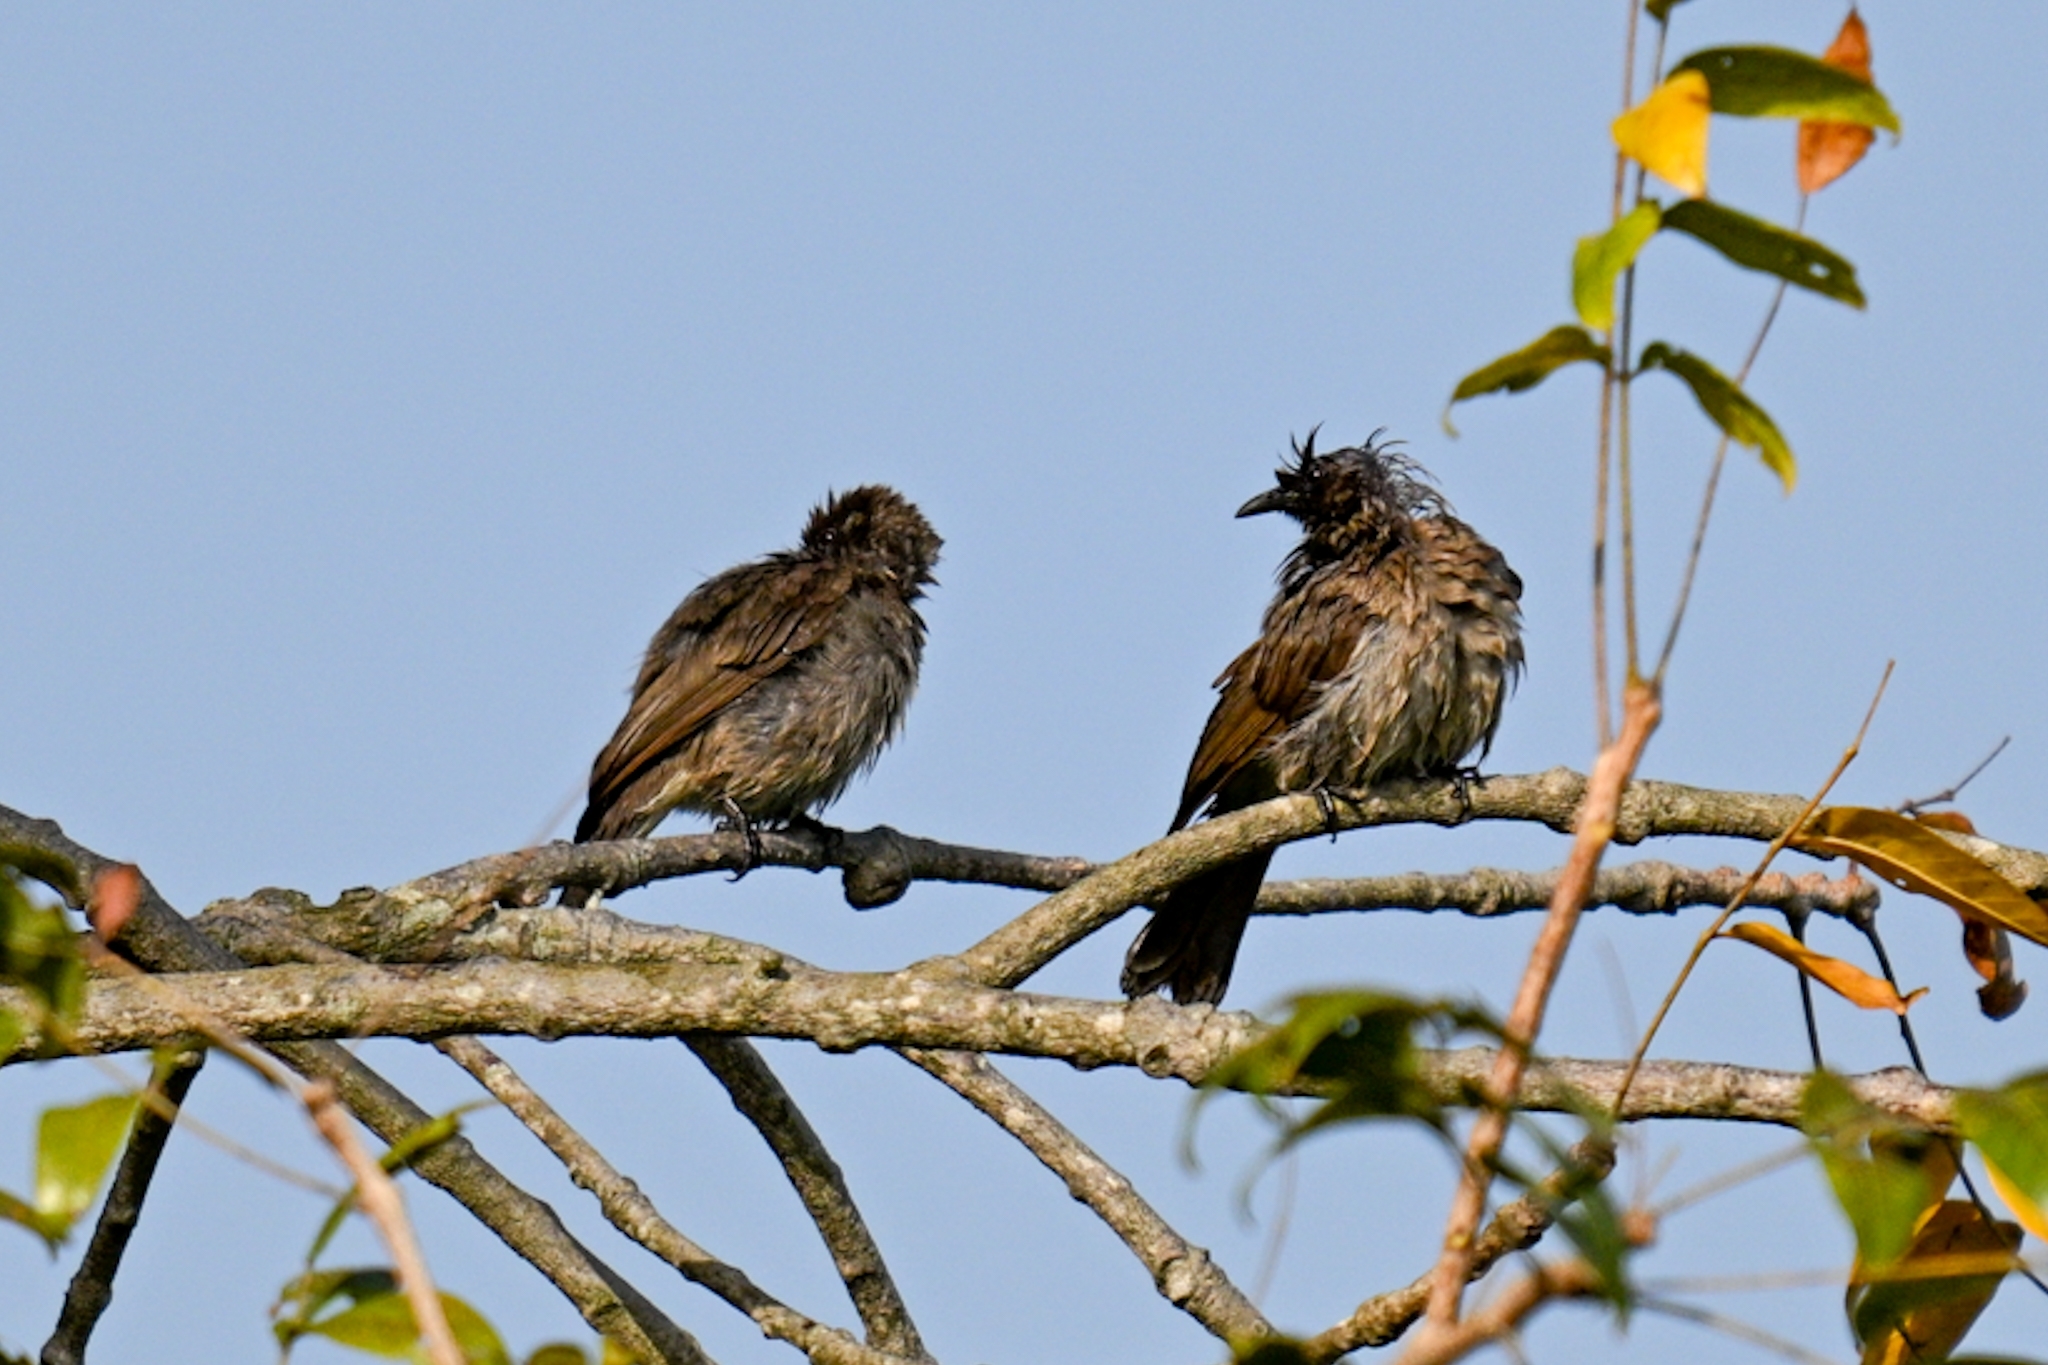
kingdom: Animalia
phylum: Chordata
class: Aves
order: Passeriformes
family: Pycnonotidae
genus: Pycnonotus
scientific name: Pycnonotus barbatus
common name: Common bulbul
